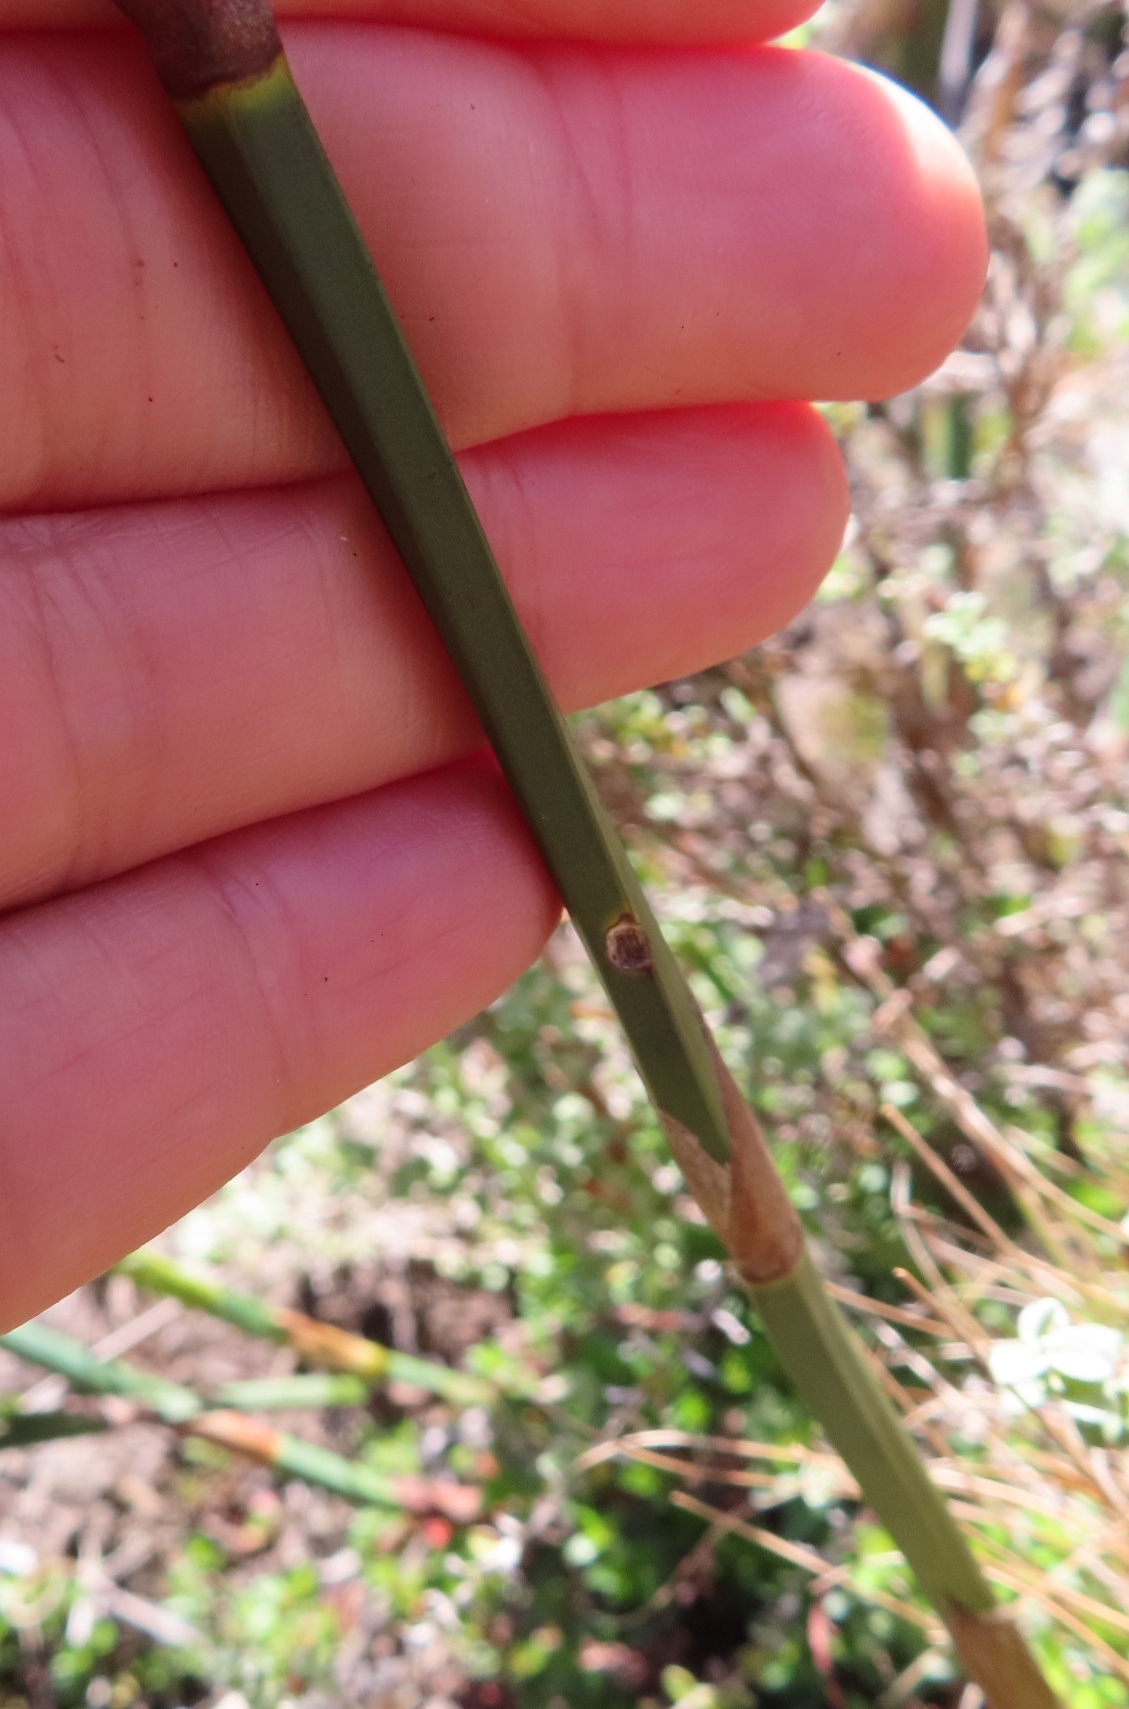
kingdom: Plantae
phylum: Tracheophyta
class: Liliopsida
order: Poales
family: Restionaceae
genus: Restio
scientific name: Restio tetragonus
